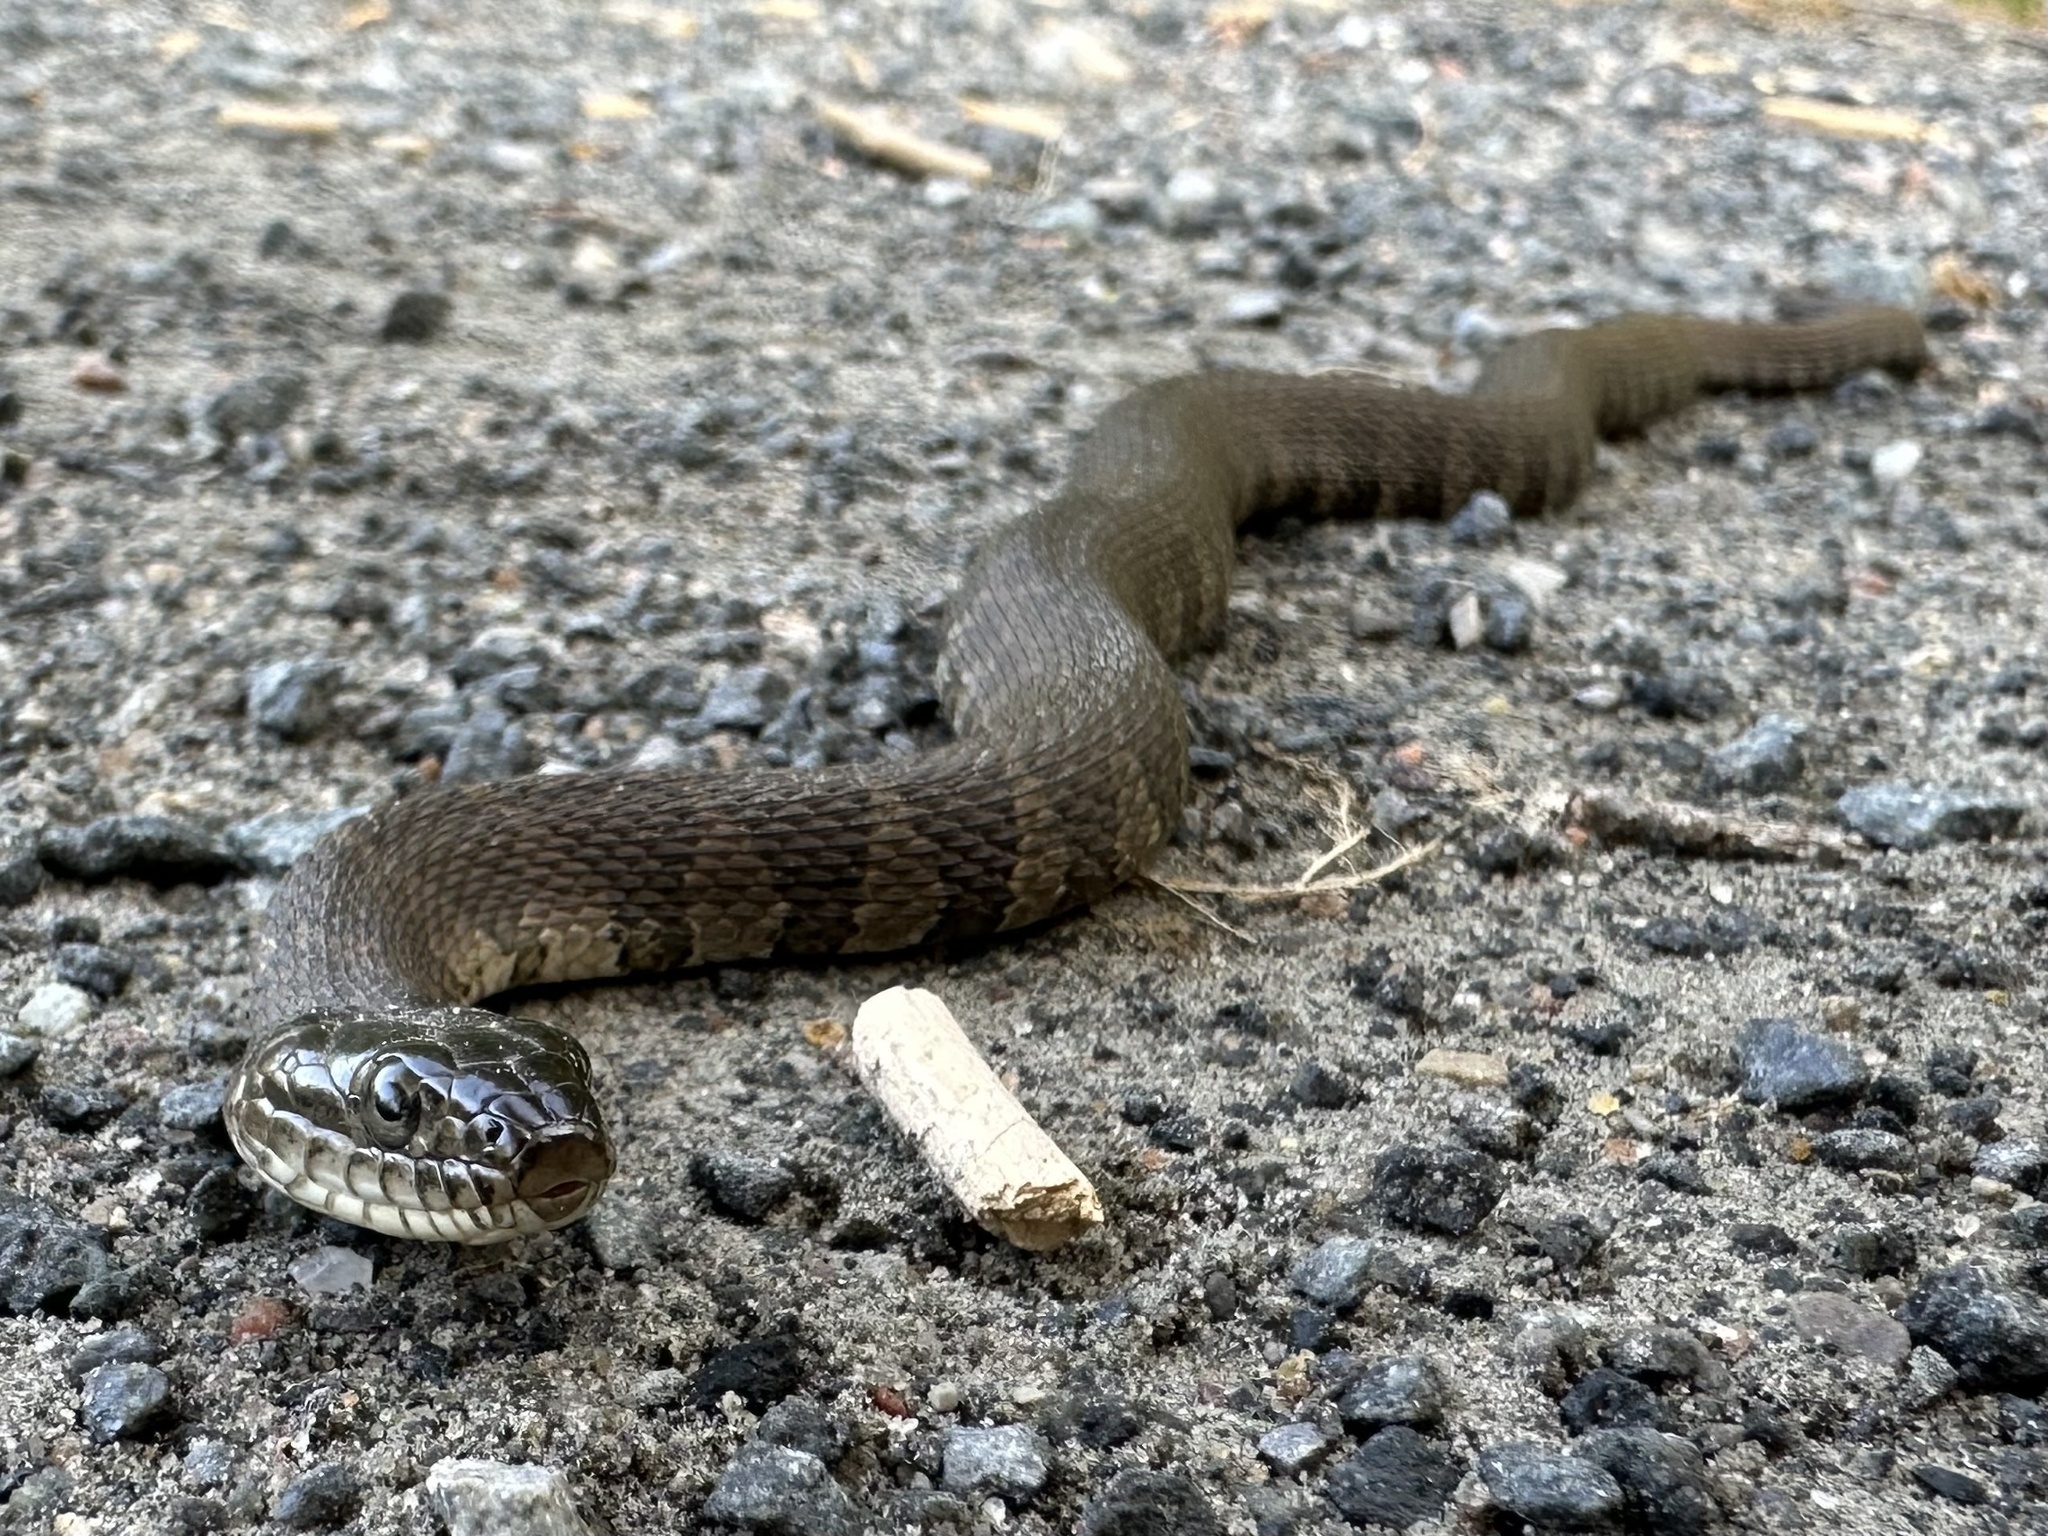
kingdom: Animalia
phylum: Chordata
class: Squamata
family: Colubridae
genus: Nerodia
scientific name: Nerodia sipedon
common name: Northern water snake
